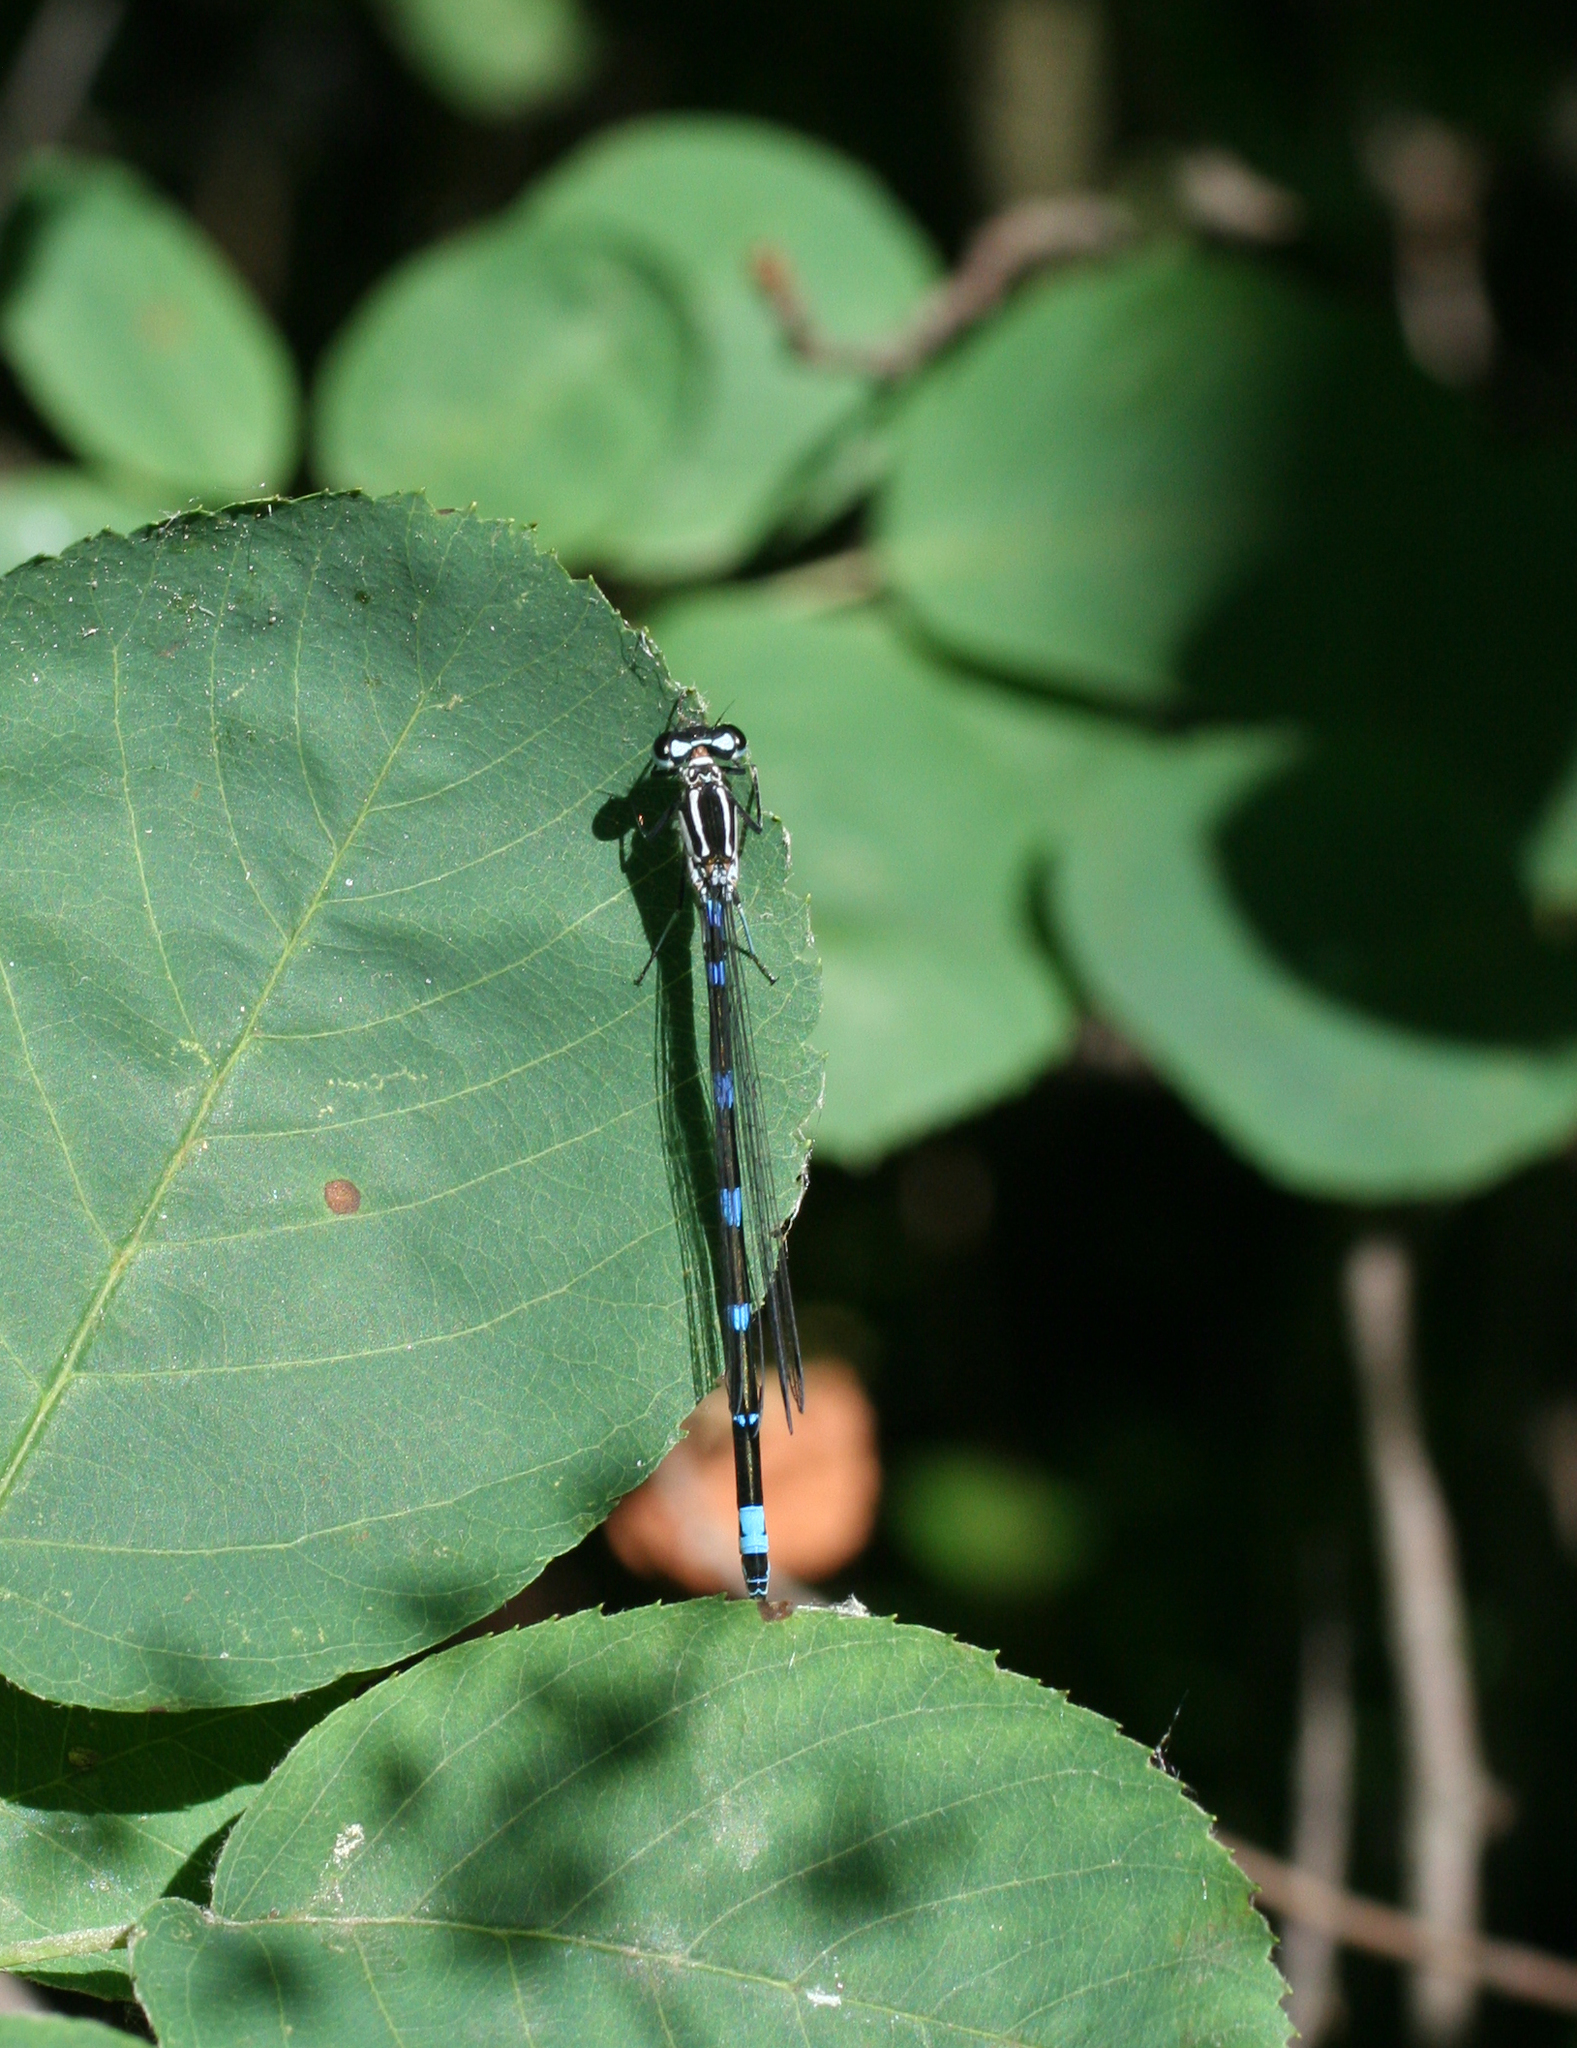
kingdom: Animalia
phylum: Arthropoda
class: Insecta
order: Odonata
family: Coenagrionidae
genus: Coenagrion
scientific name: Coenagrion pulchellum
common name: Variable bluet
